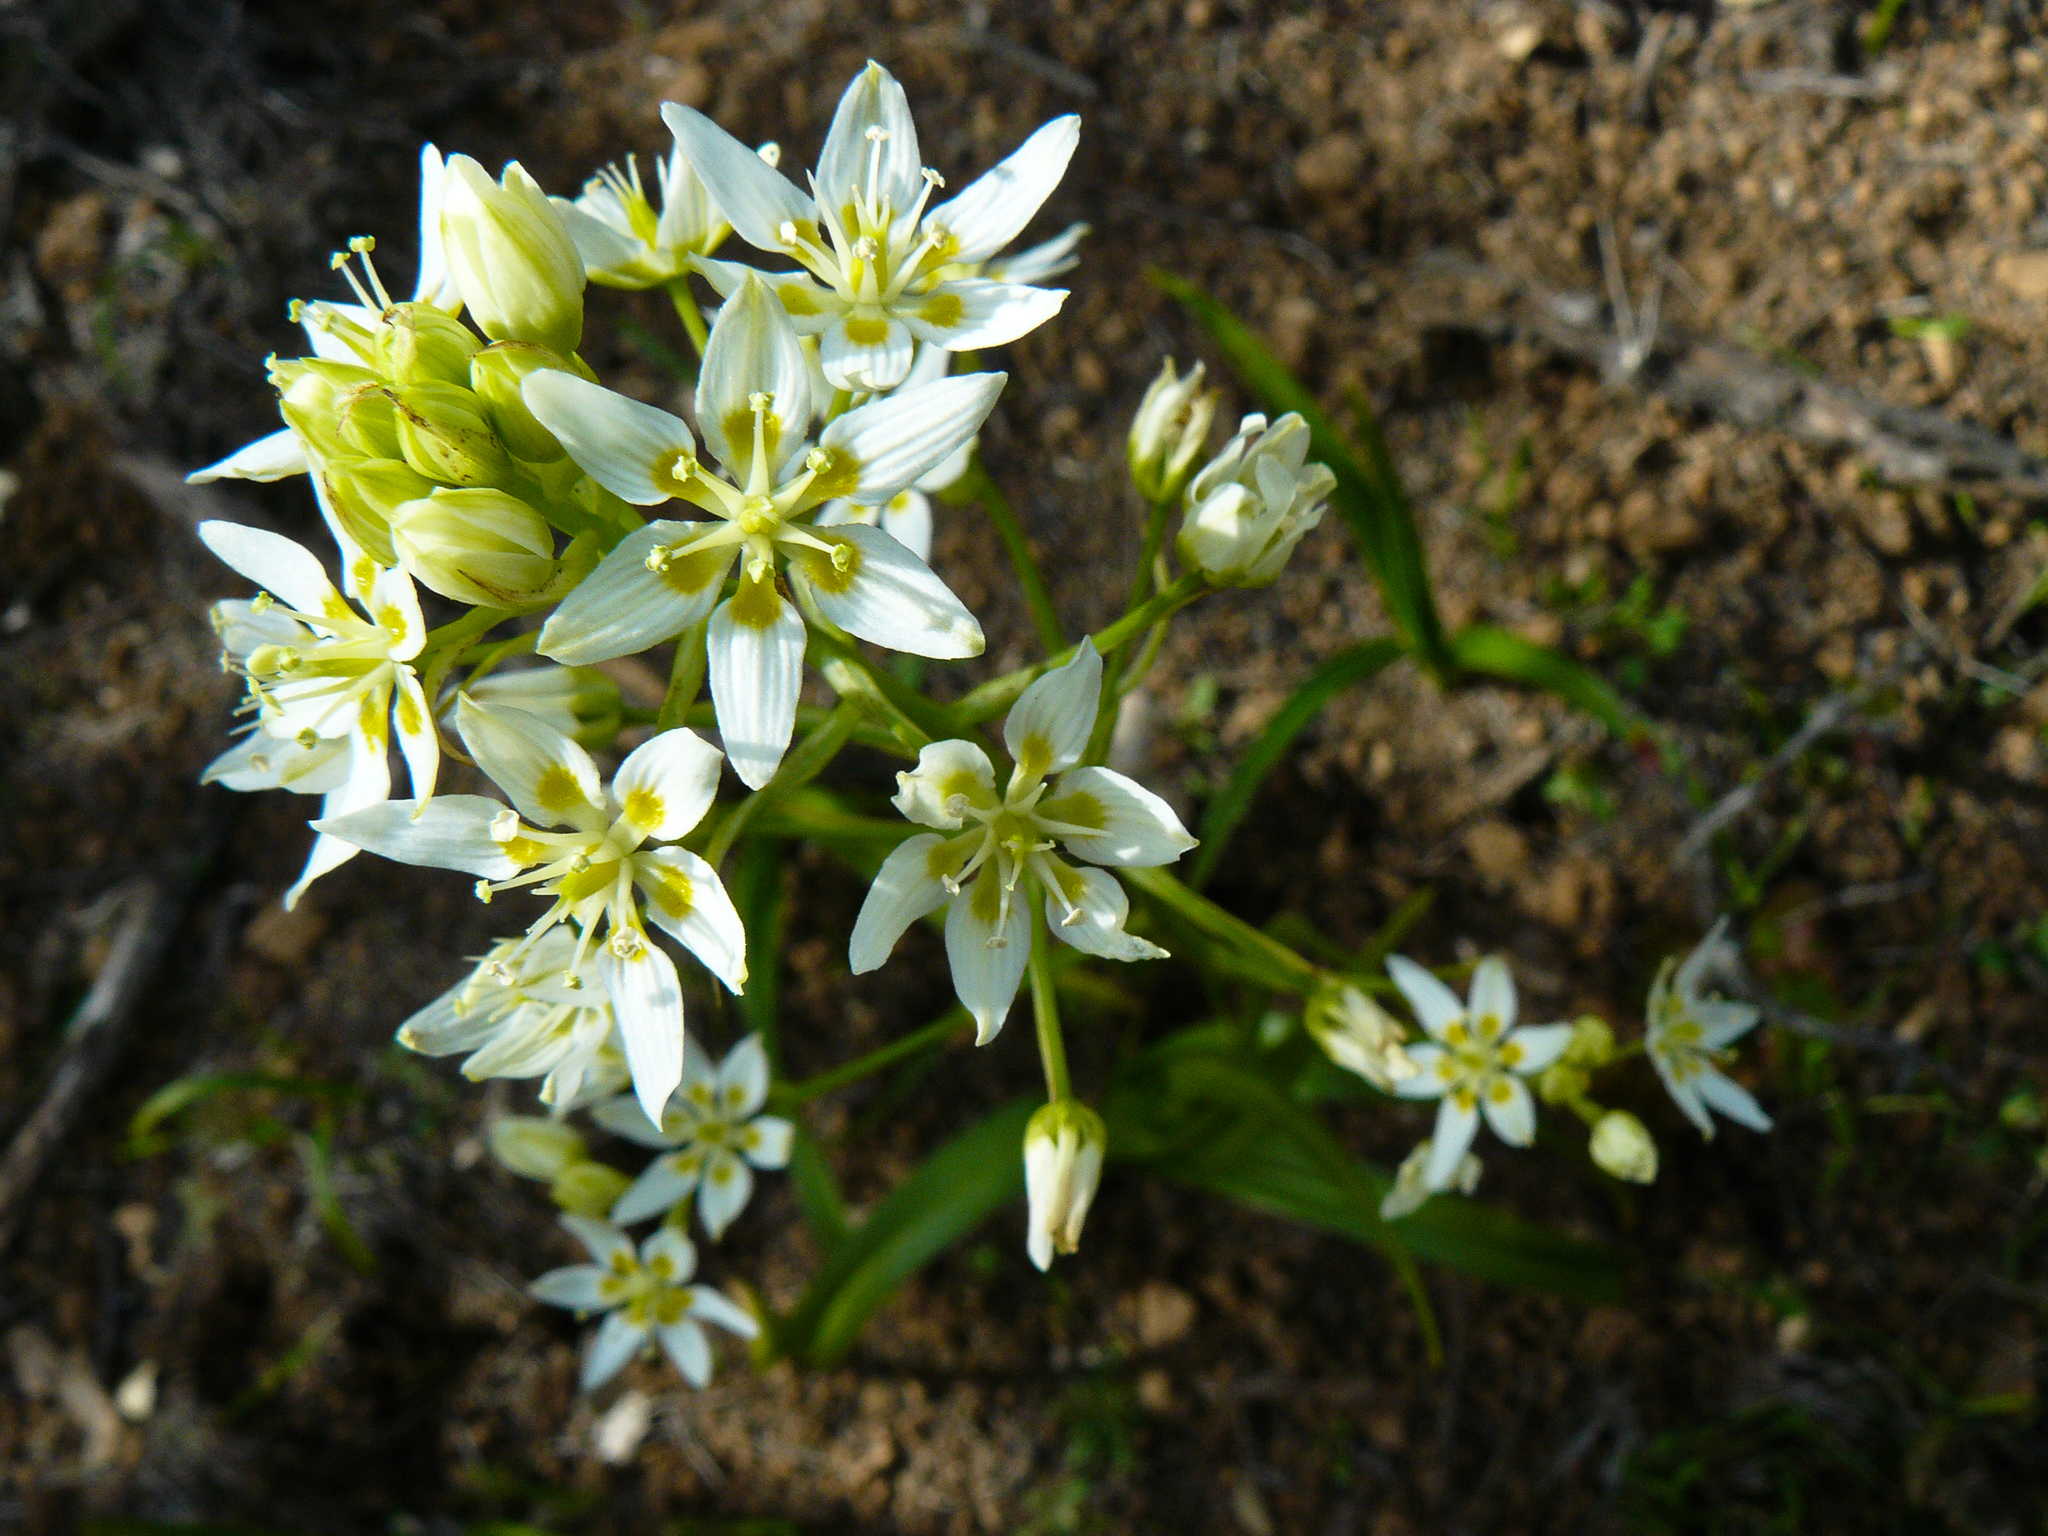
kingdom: Plantae
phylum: Tracheophyta
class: Liliopsida
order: Liliales
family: Melanthiaceae
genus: Toxicoscordion
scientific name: Toxicoscordion fremontii
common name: Fremont's death camas
